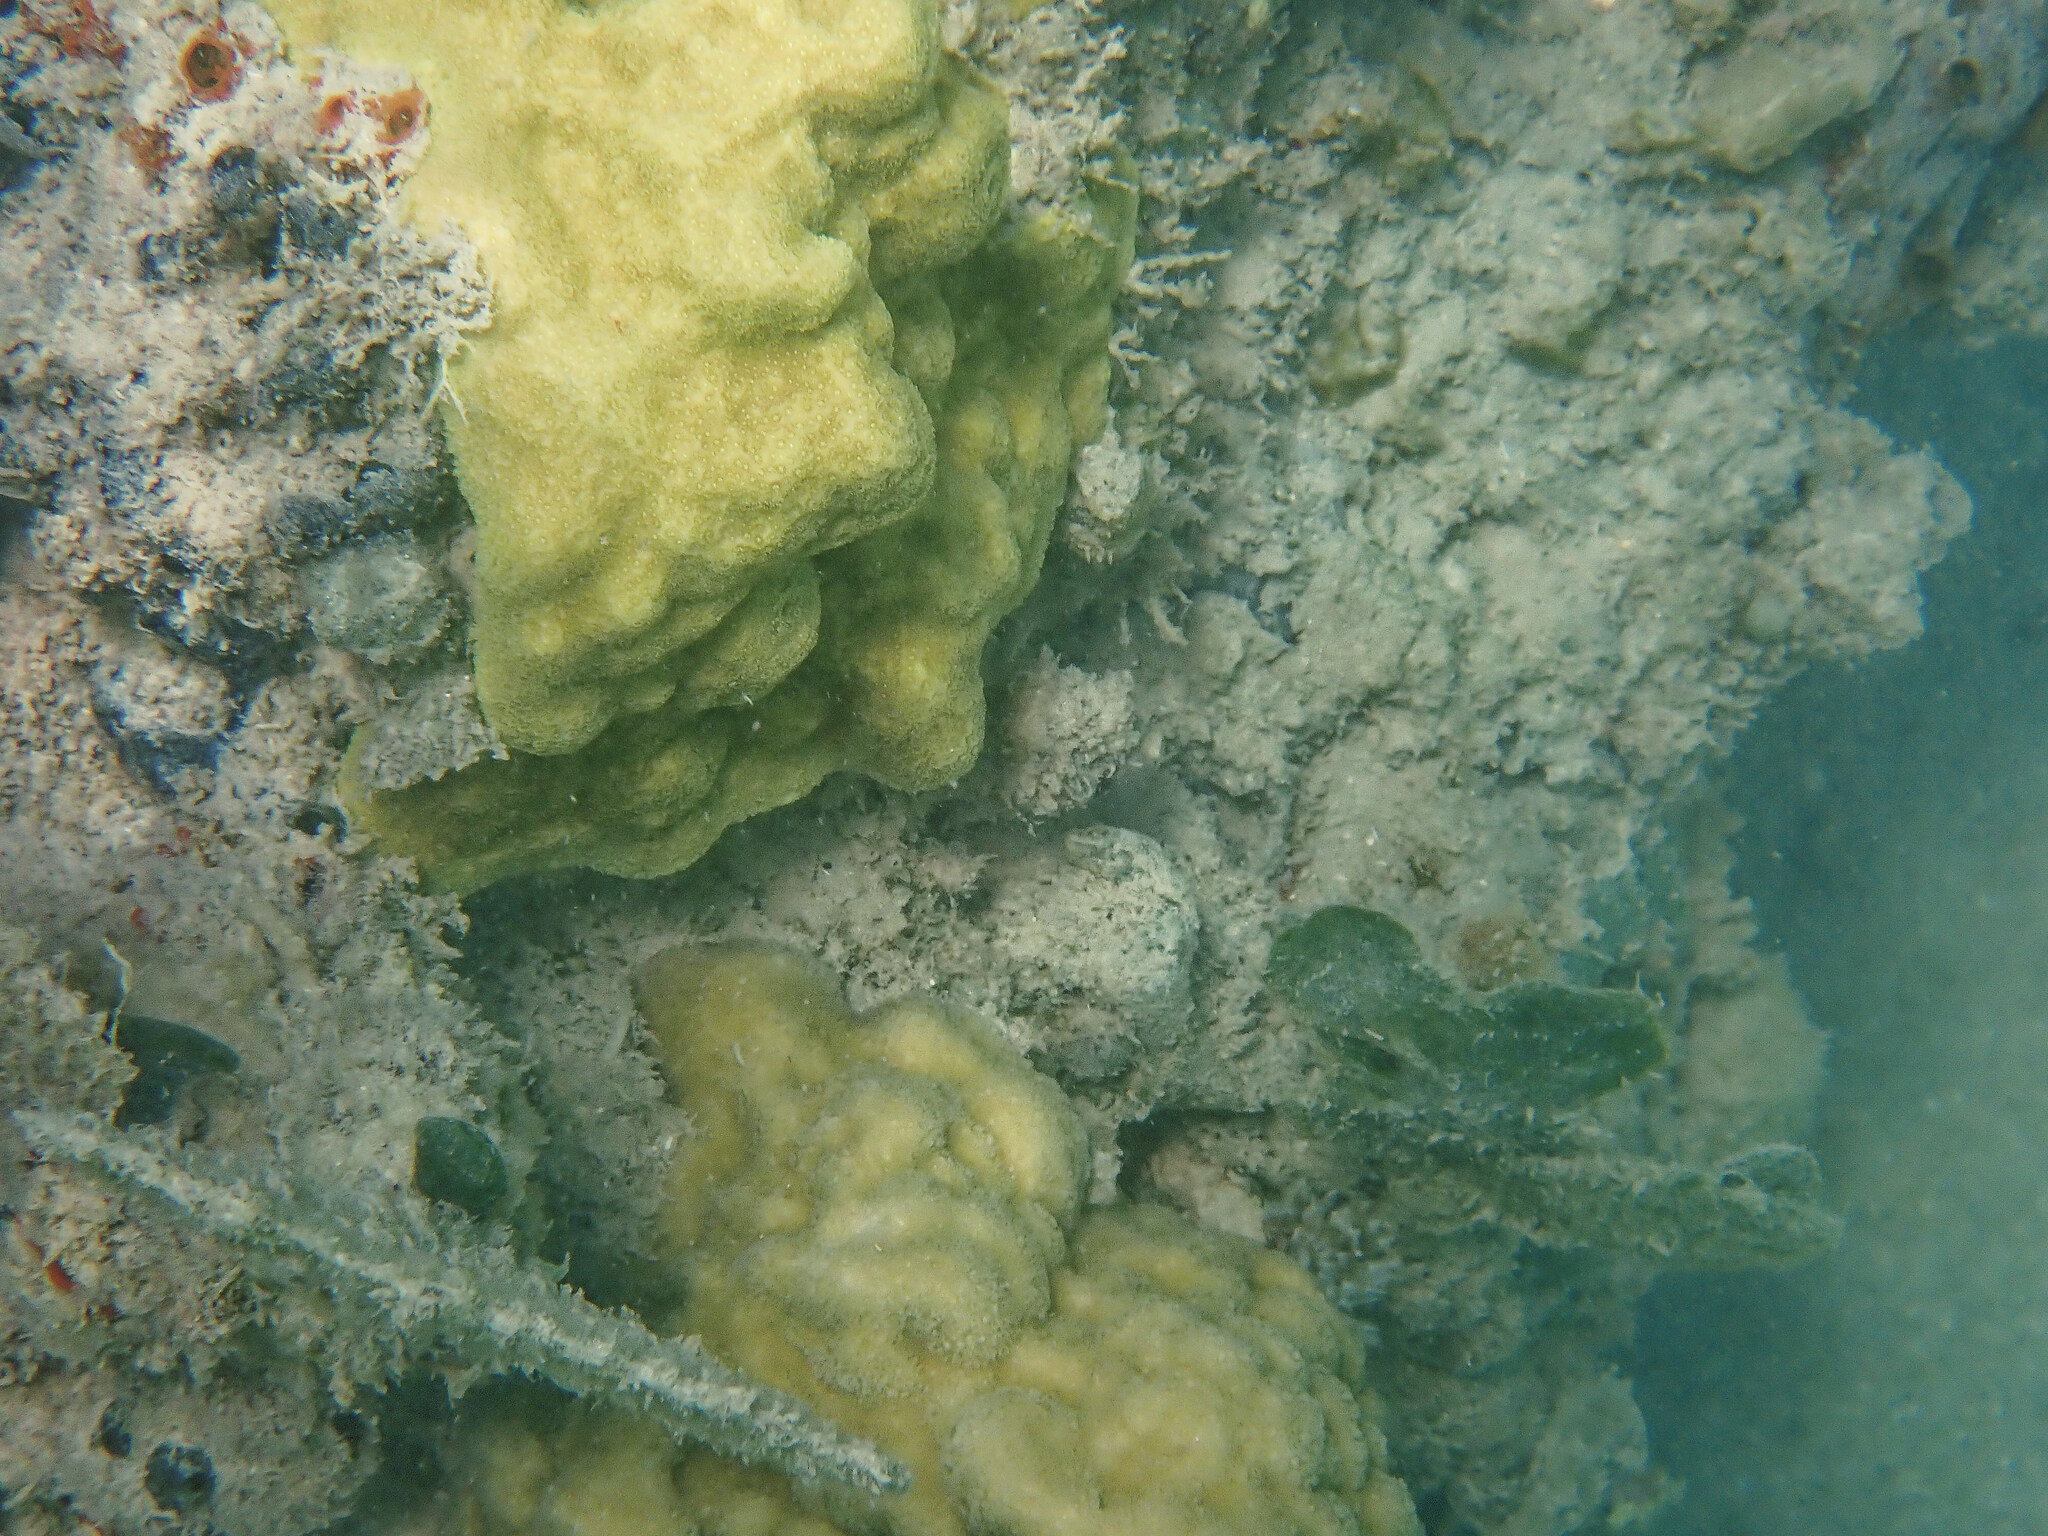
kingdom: Animalia
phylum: Cnidaria
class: Anthozoa
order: Scleractinia
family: Poritidae
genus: Porites
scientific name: Porites astreoides
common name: Mustard hill coral
